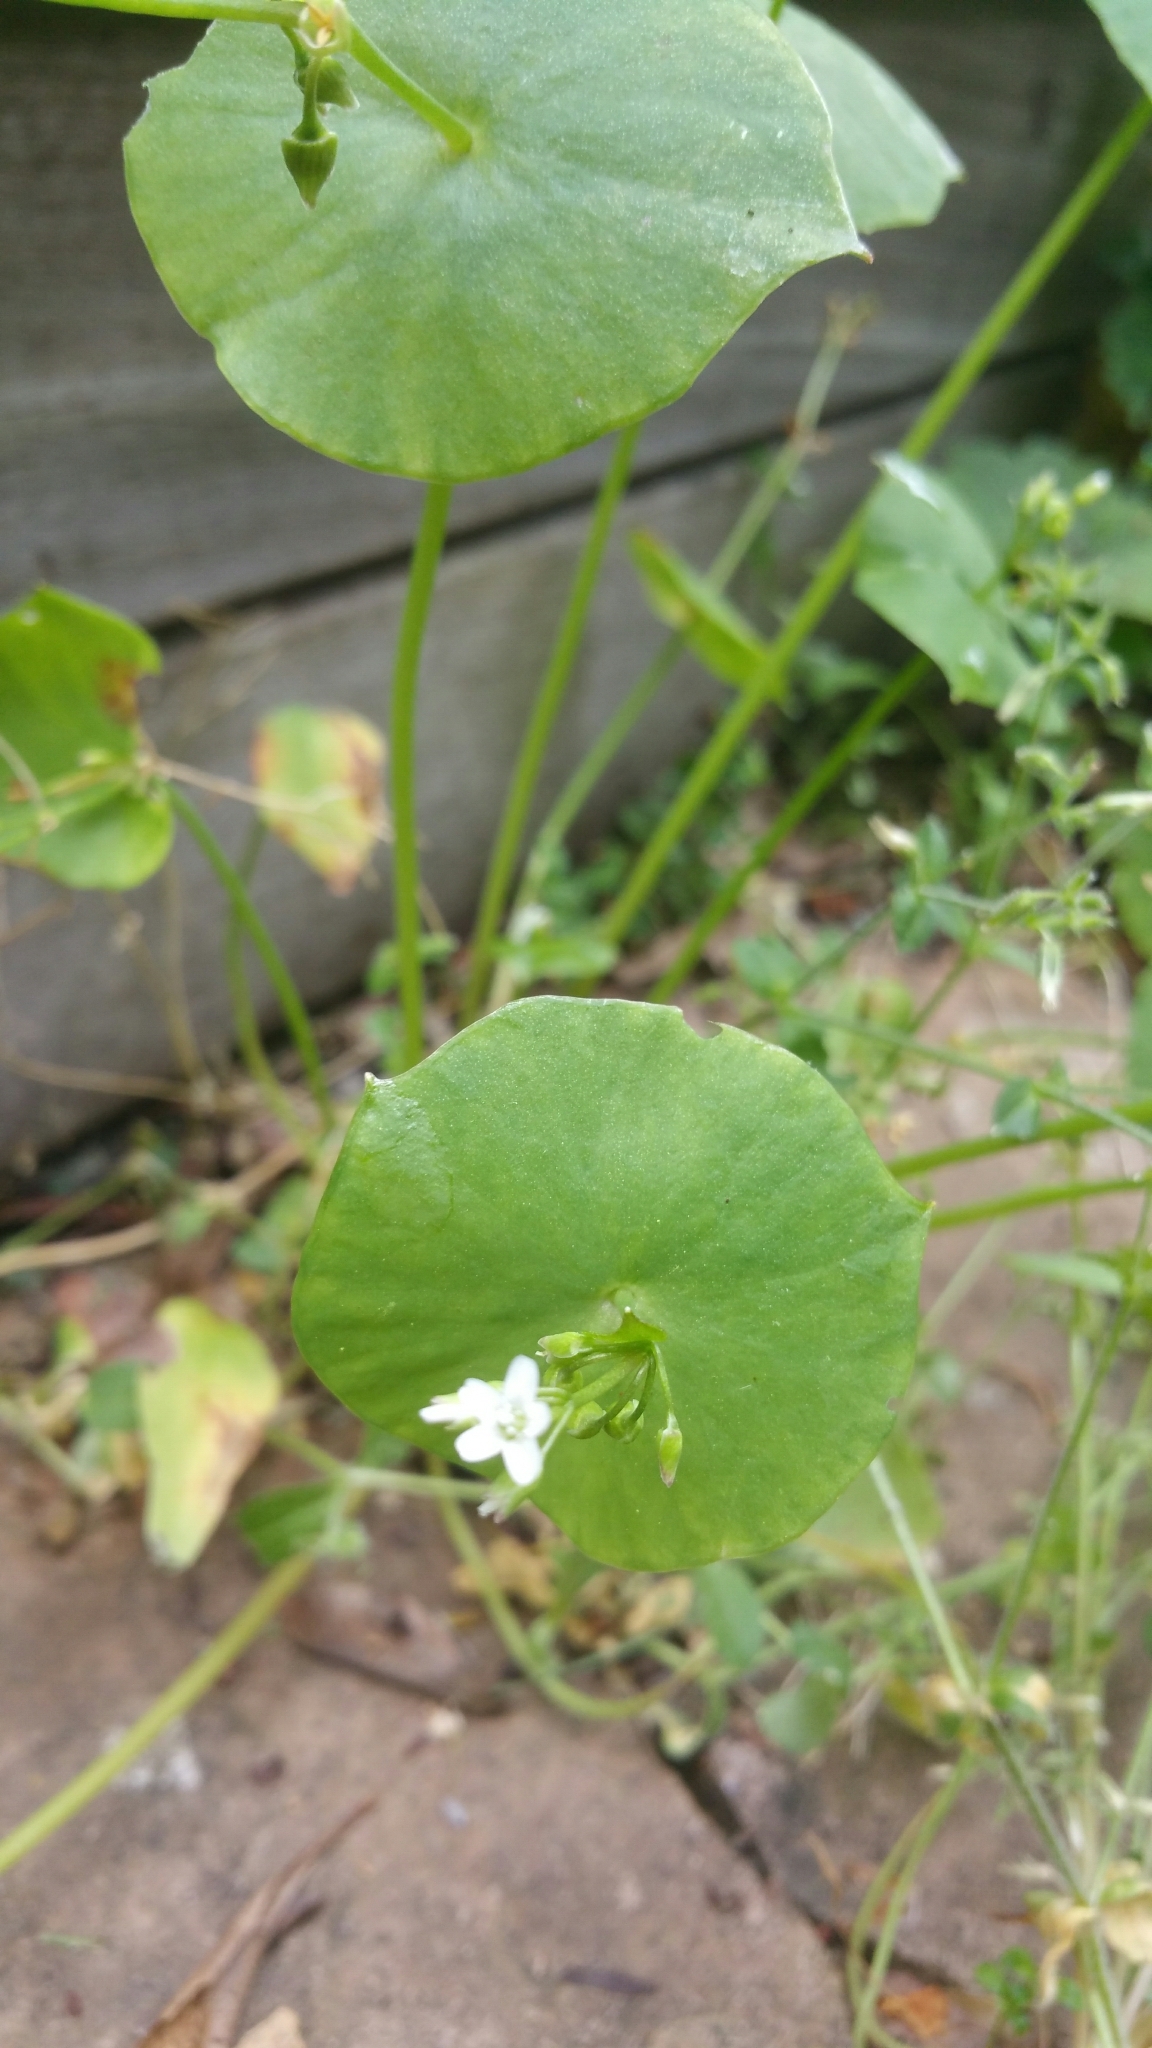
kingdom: Plantae
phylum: Tracheophyta
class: Magnoliopsida
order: Caryophyllales
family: Montiaceae
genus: Claytonia
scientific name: Claytonia perfoliata
